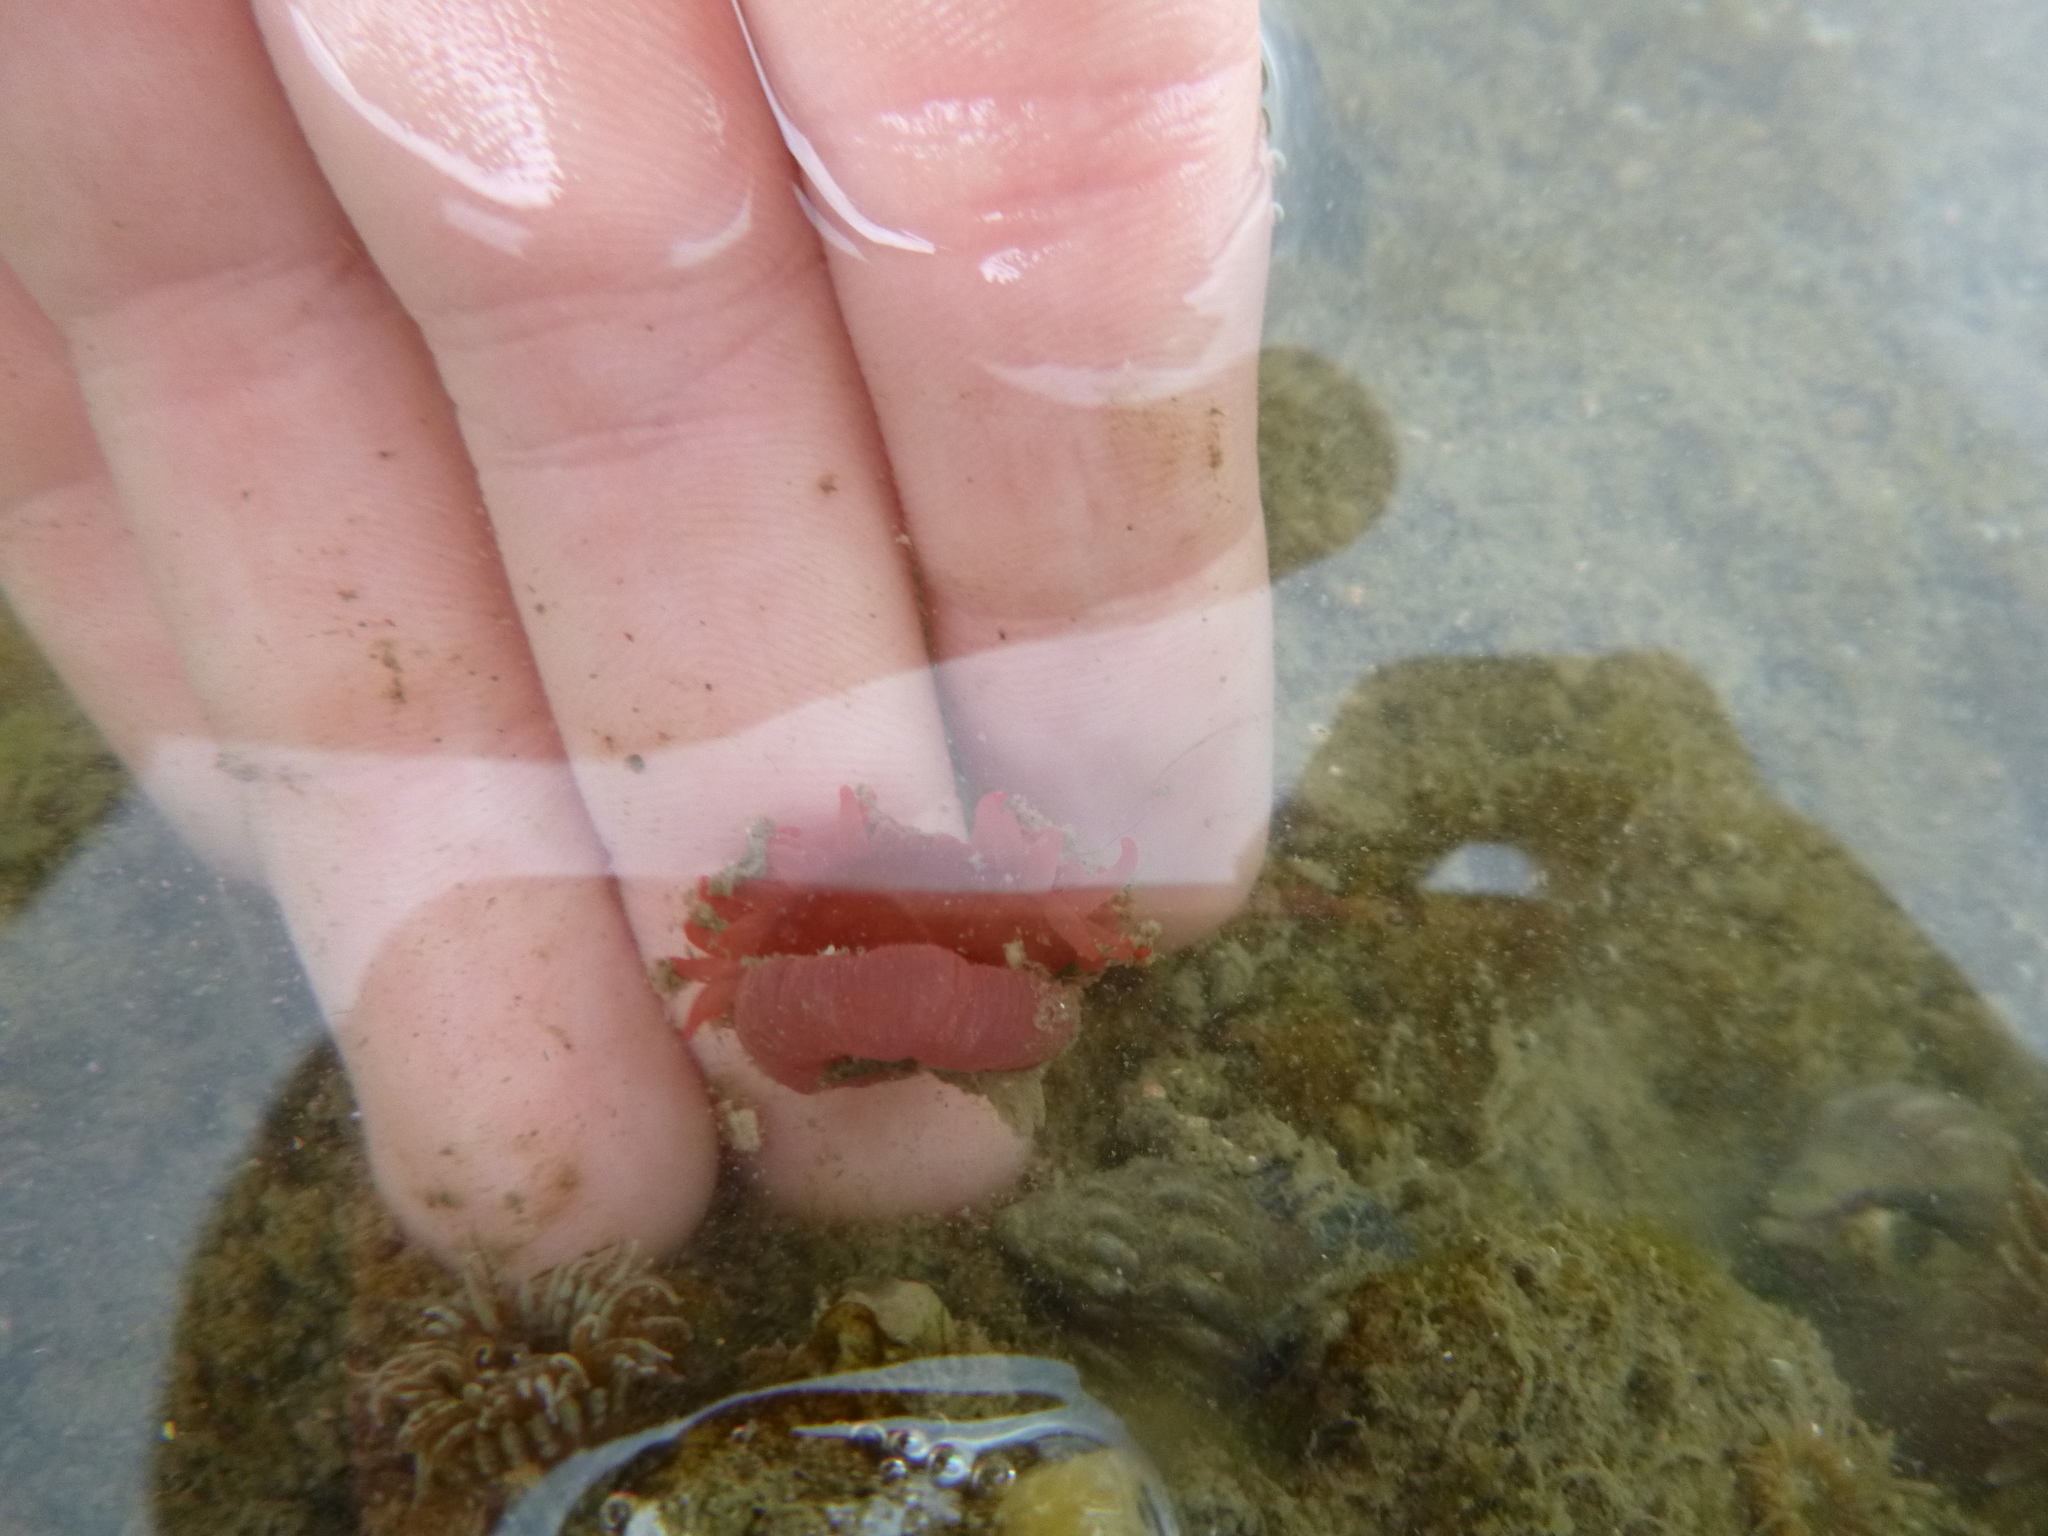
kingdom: Animalia
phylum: Cnidaria
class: Anthozoa
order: Actiniaria
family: Actiniidae
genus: Actinia
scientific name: Actinia tenebrosa
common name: Waratah anemone
